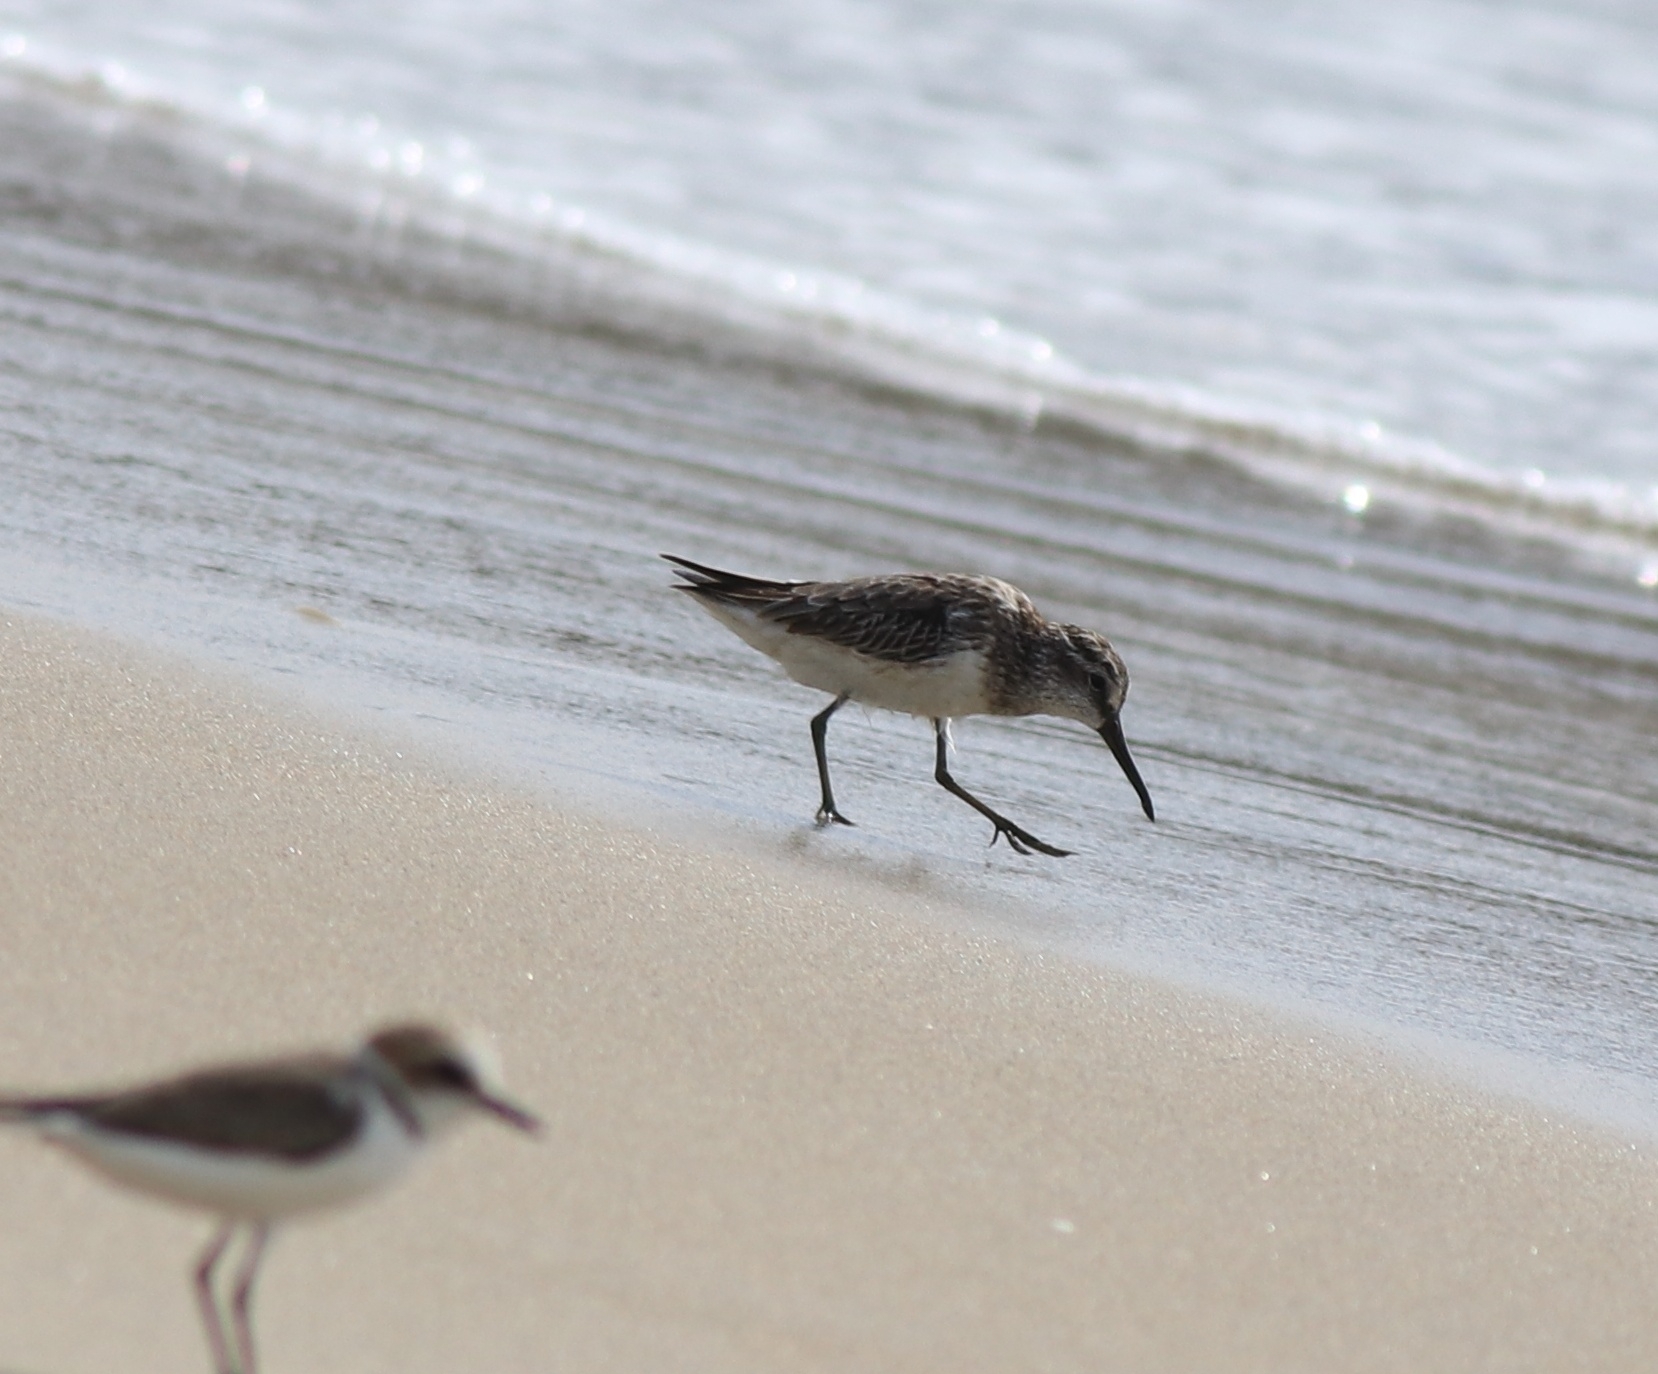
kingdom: Animalia
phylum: Chordata
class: Aves
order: Charadriiformes
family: Scolopacidae
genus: Calidris
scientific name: Calidris falcinellus
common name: Broad-billed sandpiper
